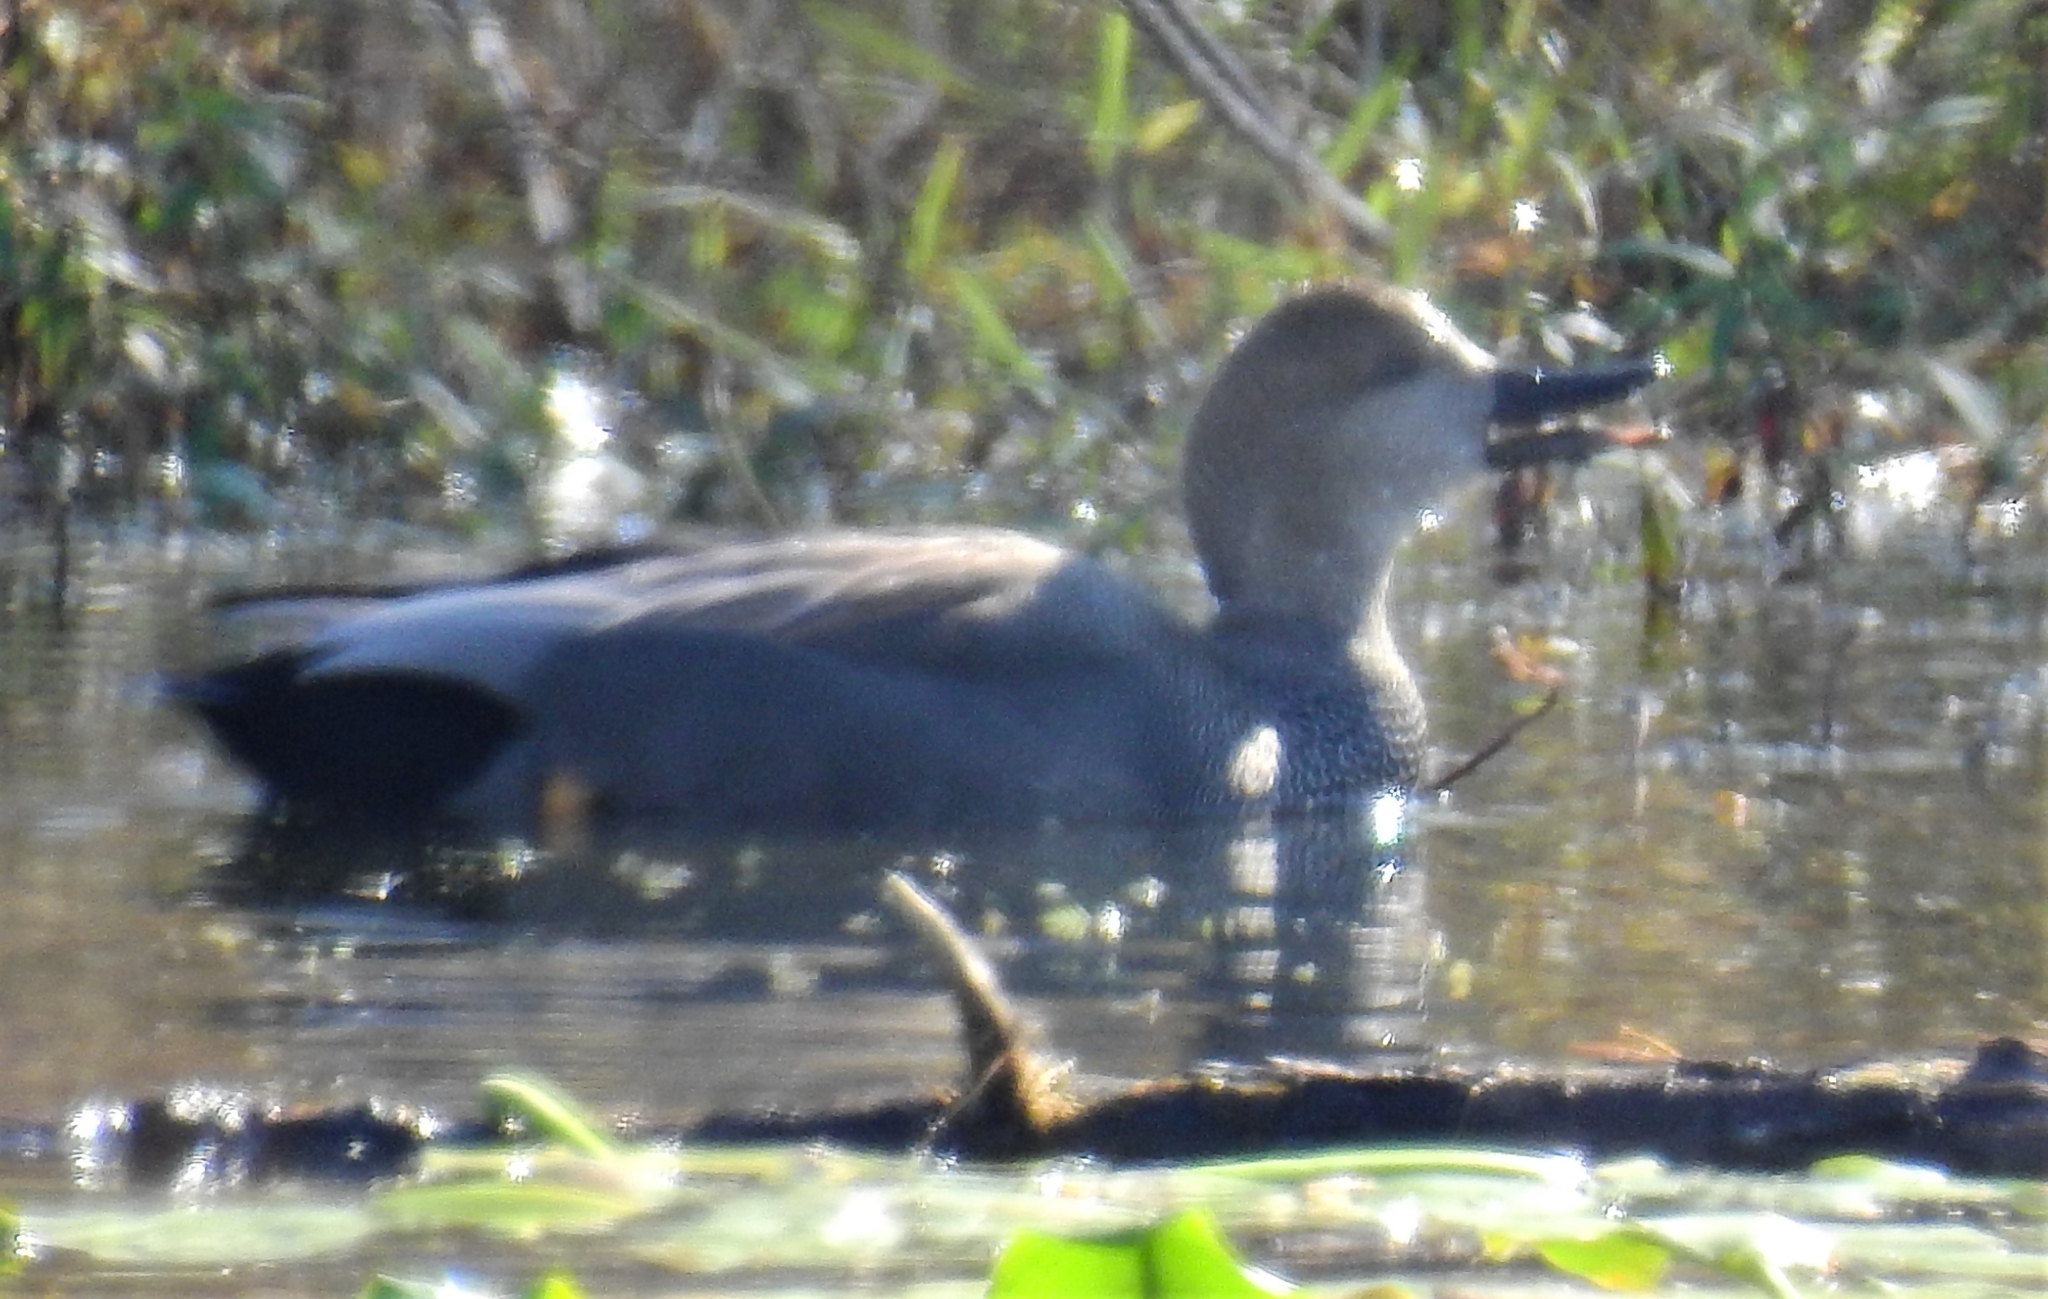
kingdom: Animalia
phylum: Chordata
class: Aves
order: Anseriformes
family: Anatidae
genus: Mareca
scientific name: Mareca strepera
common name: Gadwall
